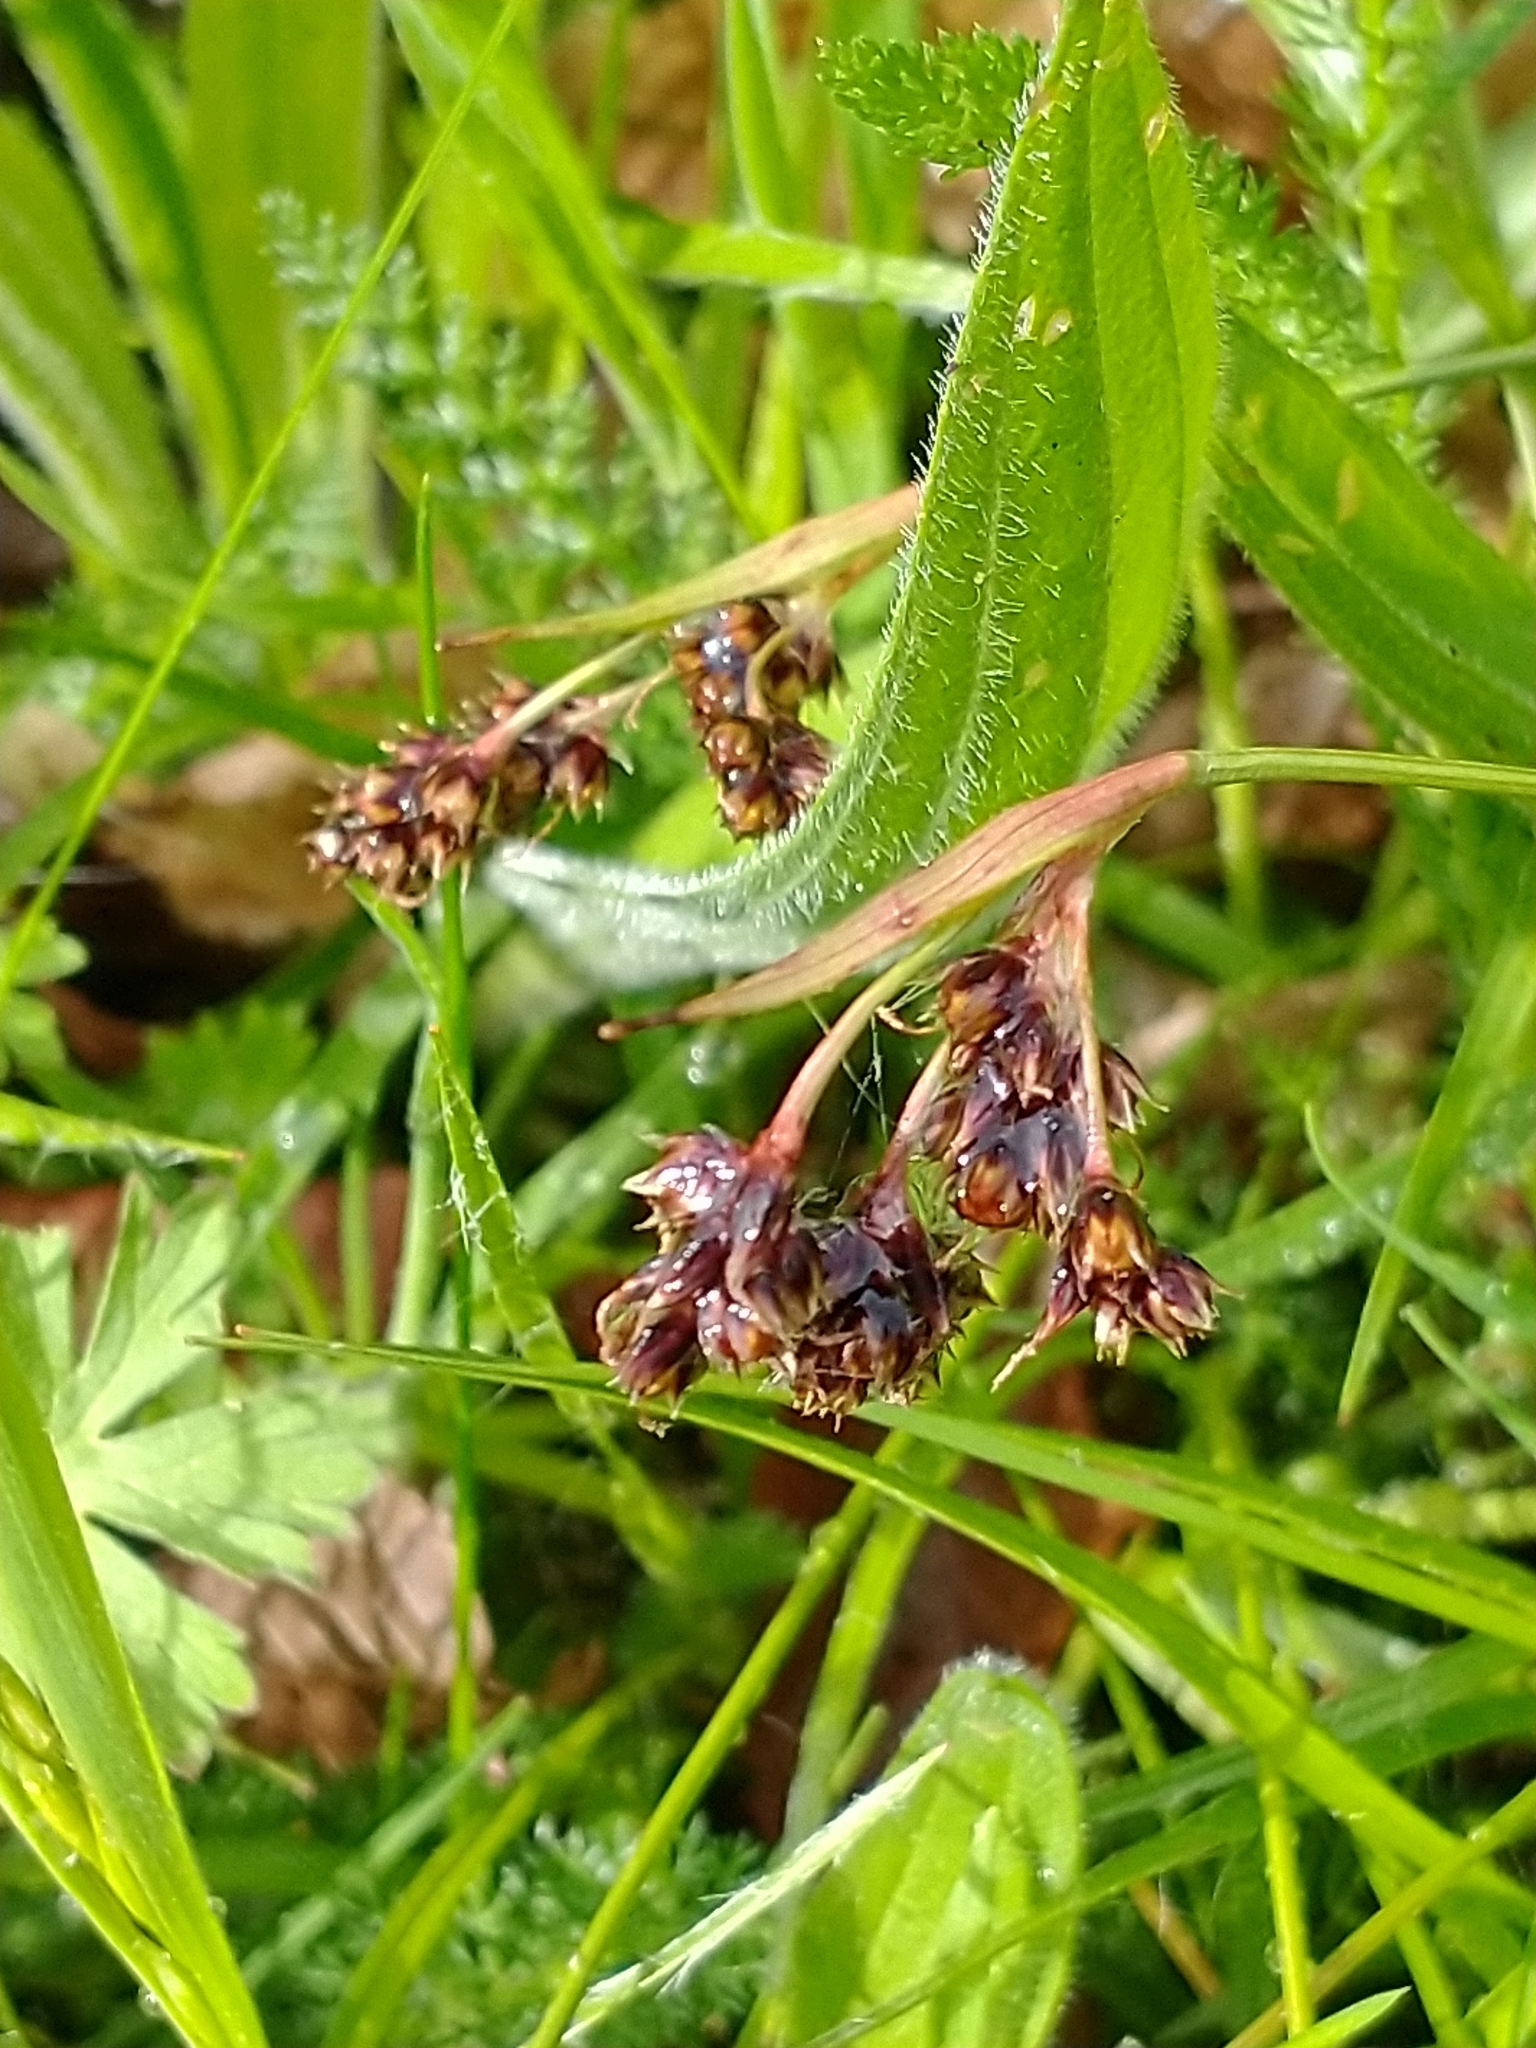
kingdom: Plantae
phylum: Tracheophyta
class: Liliopsida
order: Poales
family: Juncaceae
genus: Luzula
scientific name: Luzula campestris
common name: Field wood-rush
